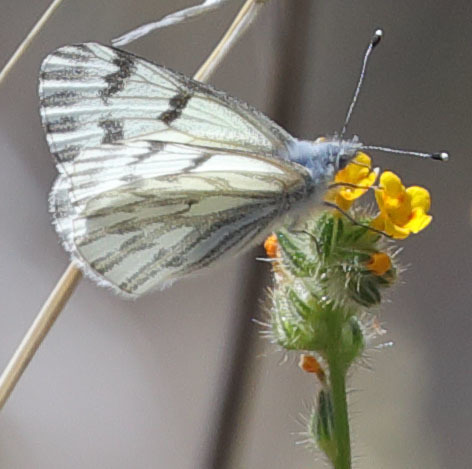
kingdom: Animalia
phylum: Arthropoda
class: Insecta
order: Lepidoptera
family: Pieridae
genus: Pontia
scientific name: Pontia sisymbrii
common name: California white
